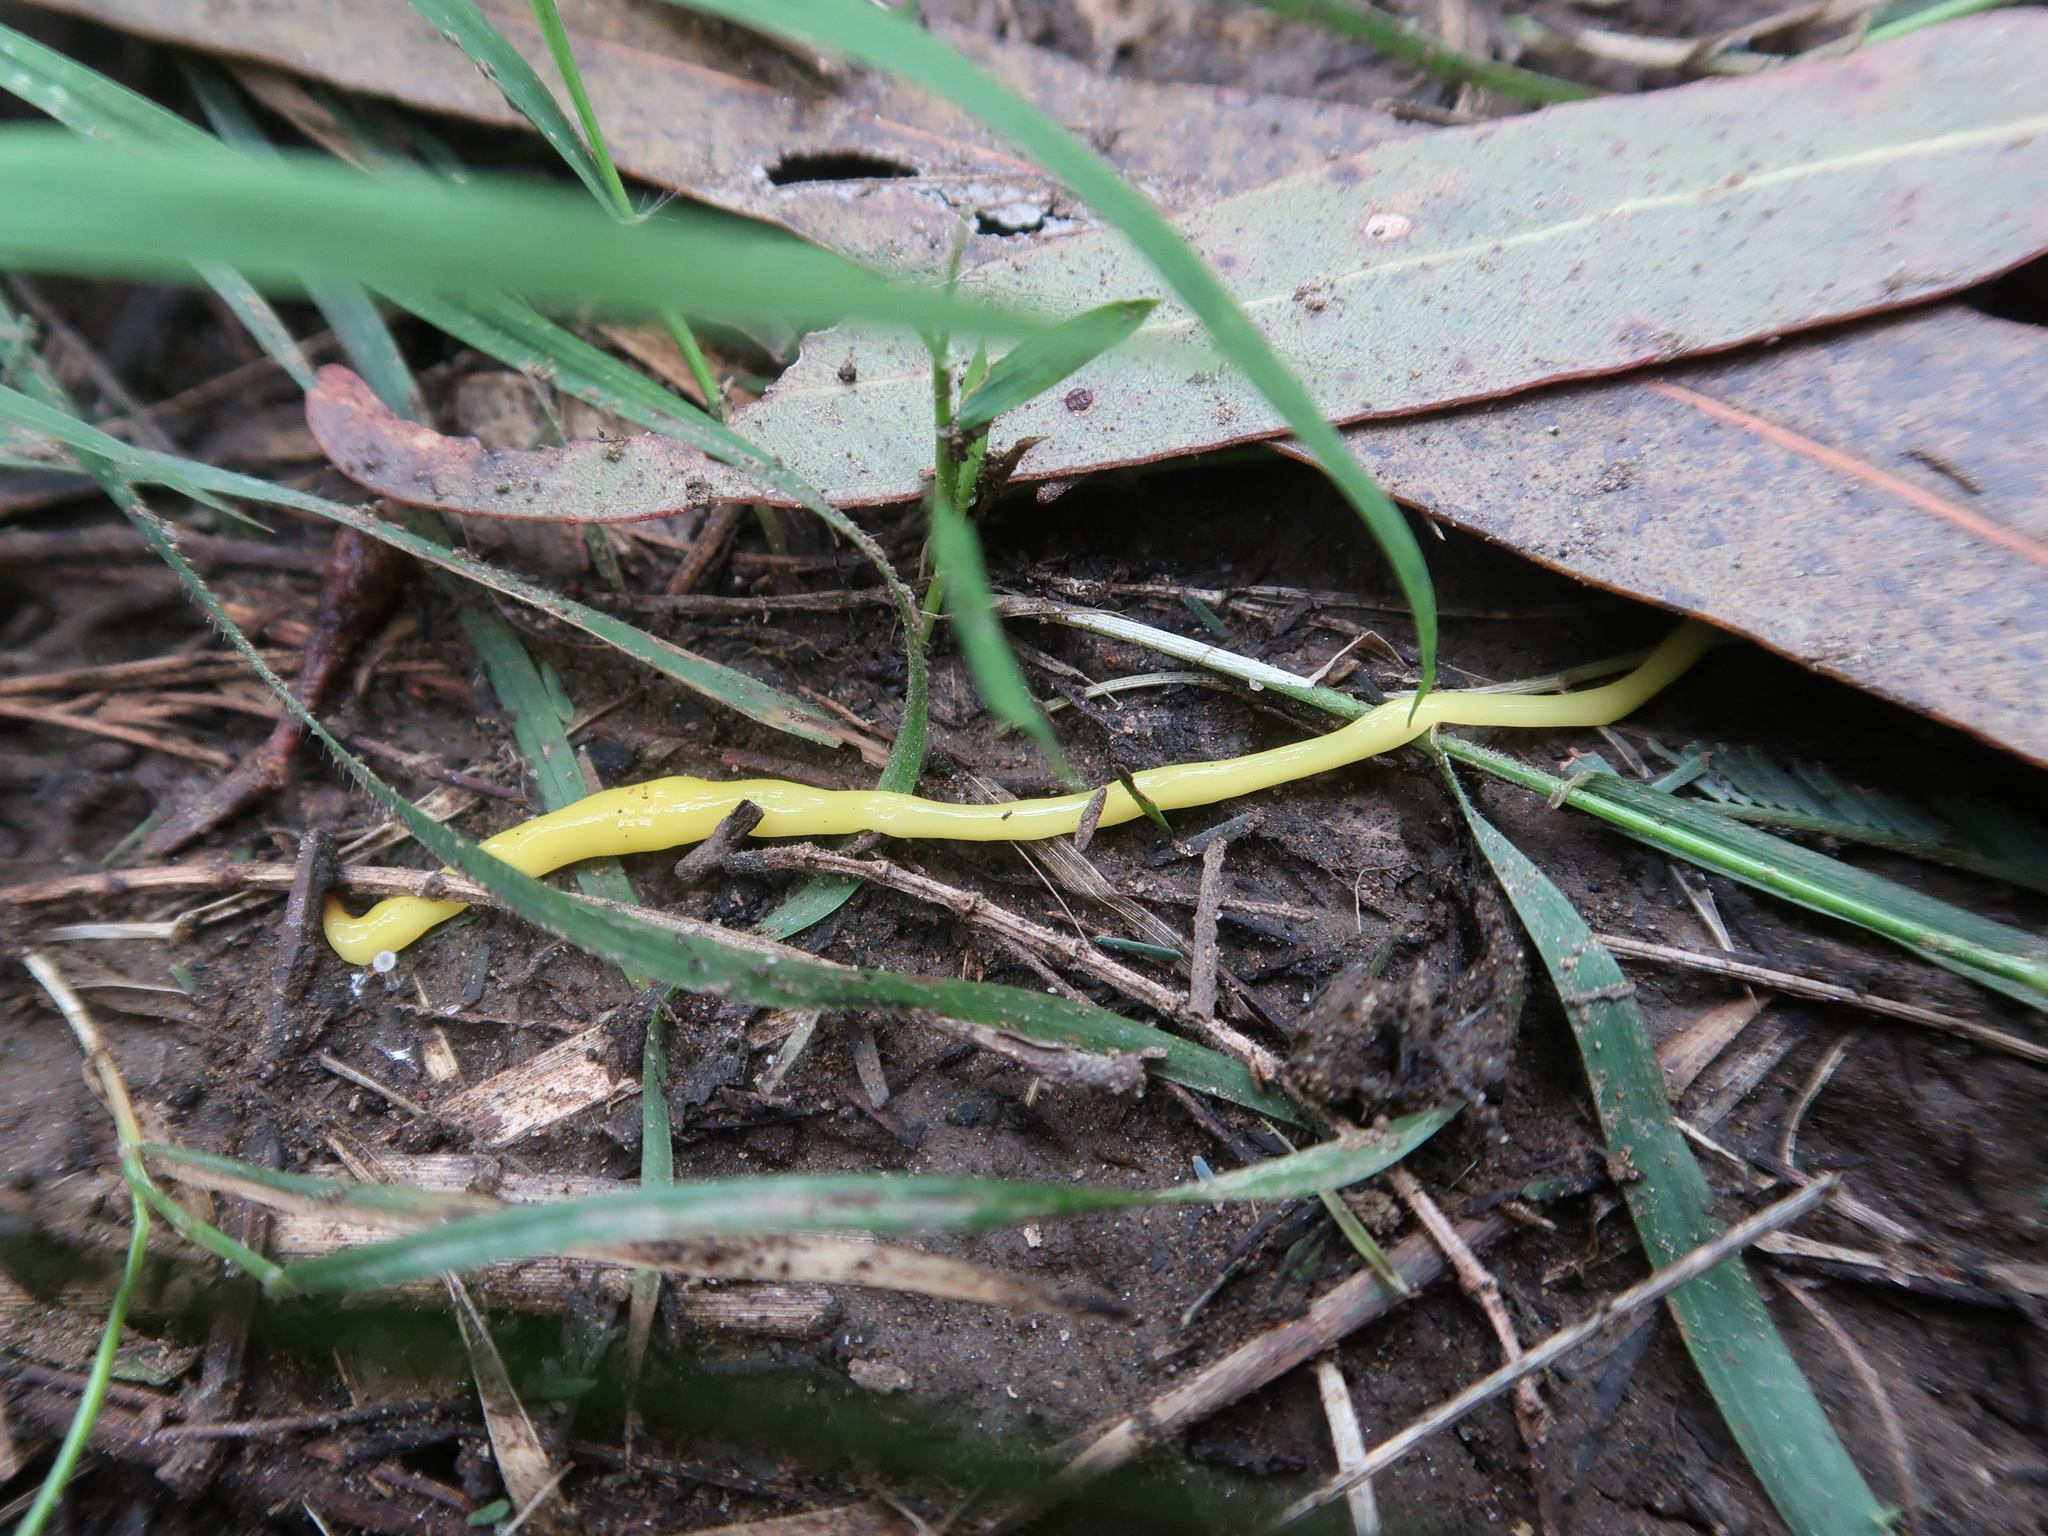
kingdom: Animalia
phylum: Platyhelminthes
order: Tricladida
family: Geoplanidae
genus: Fletchamia
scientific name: Fletchamia sugdeni
